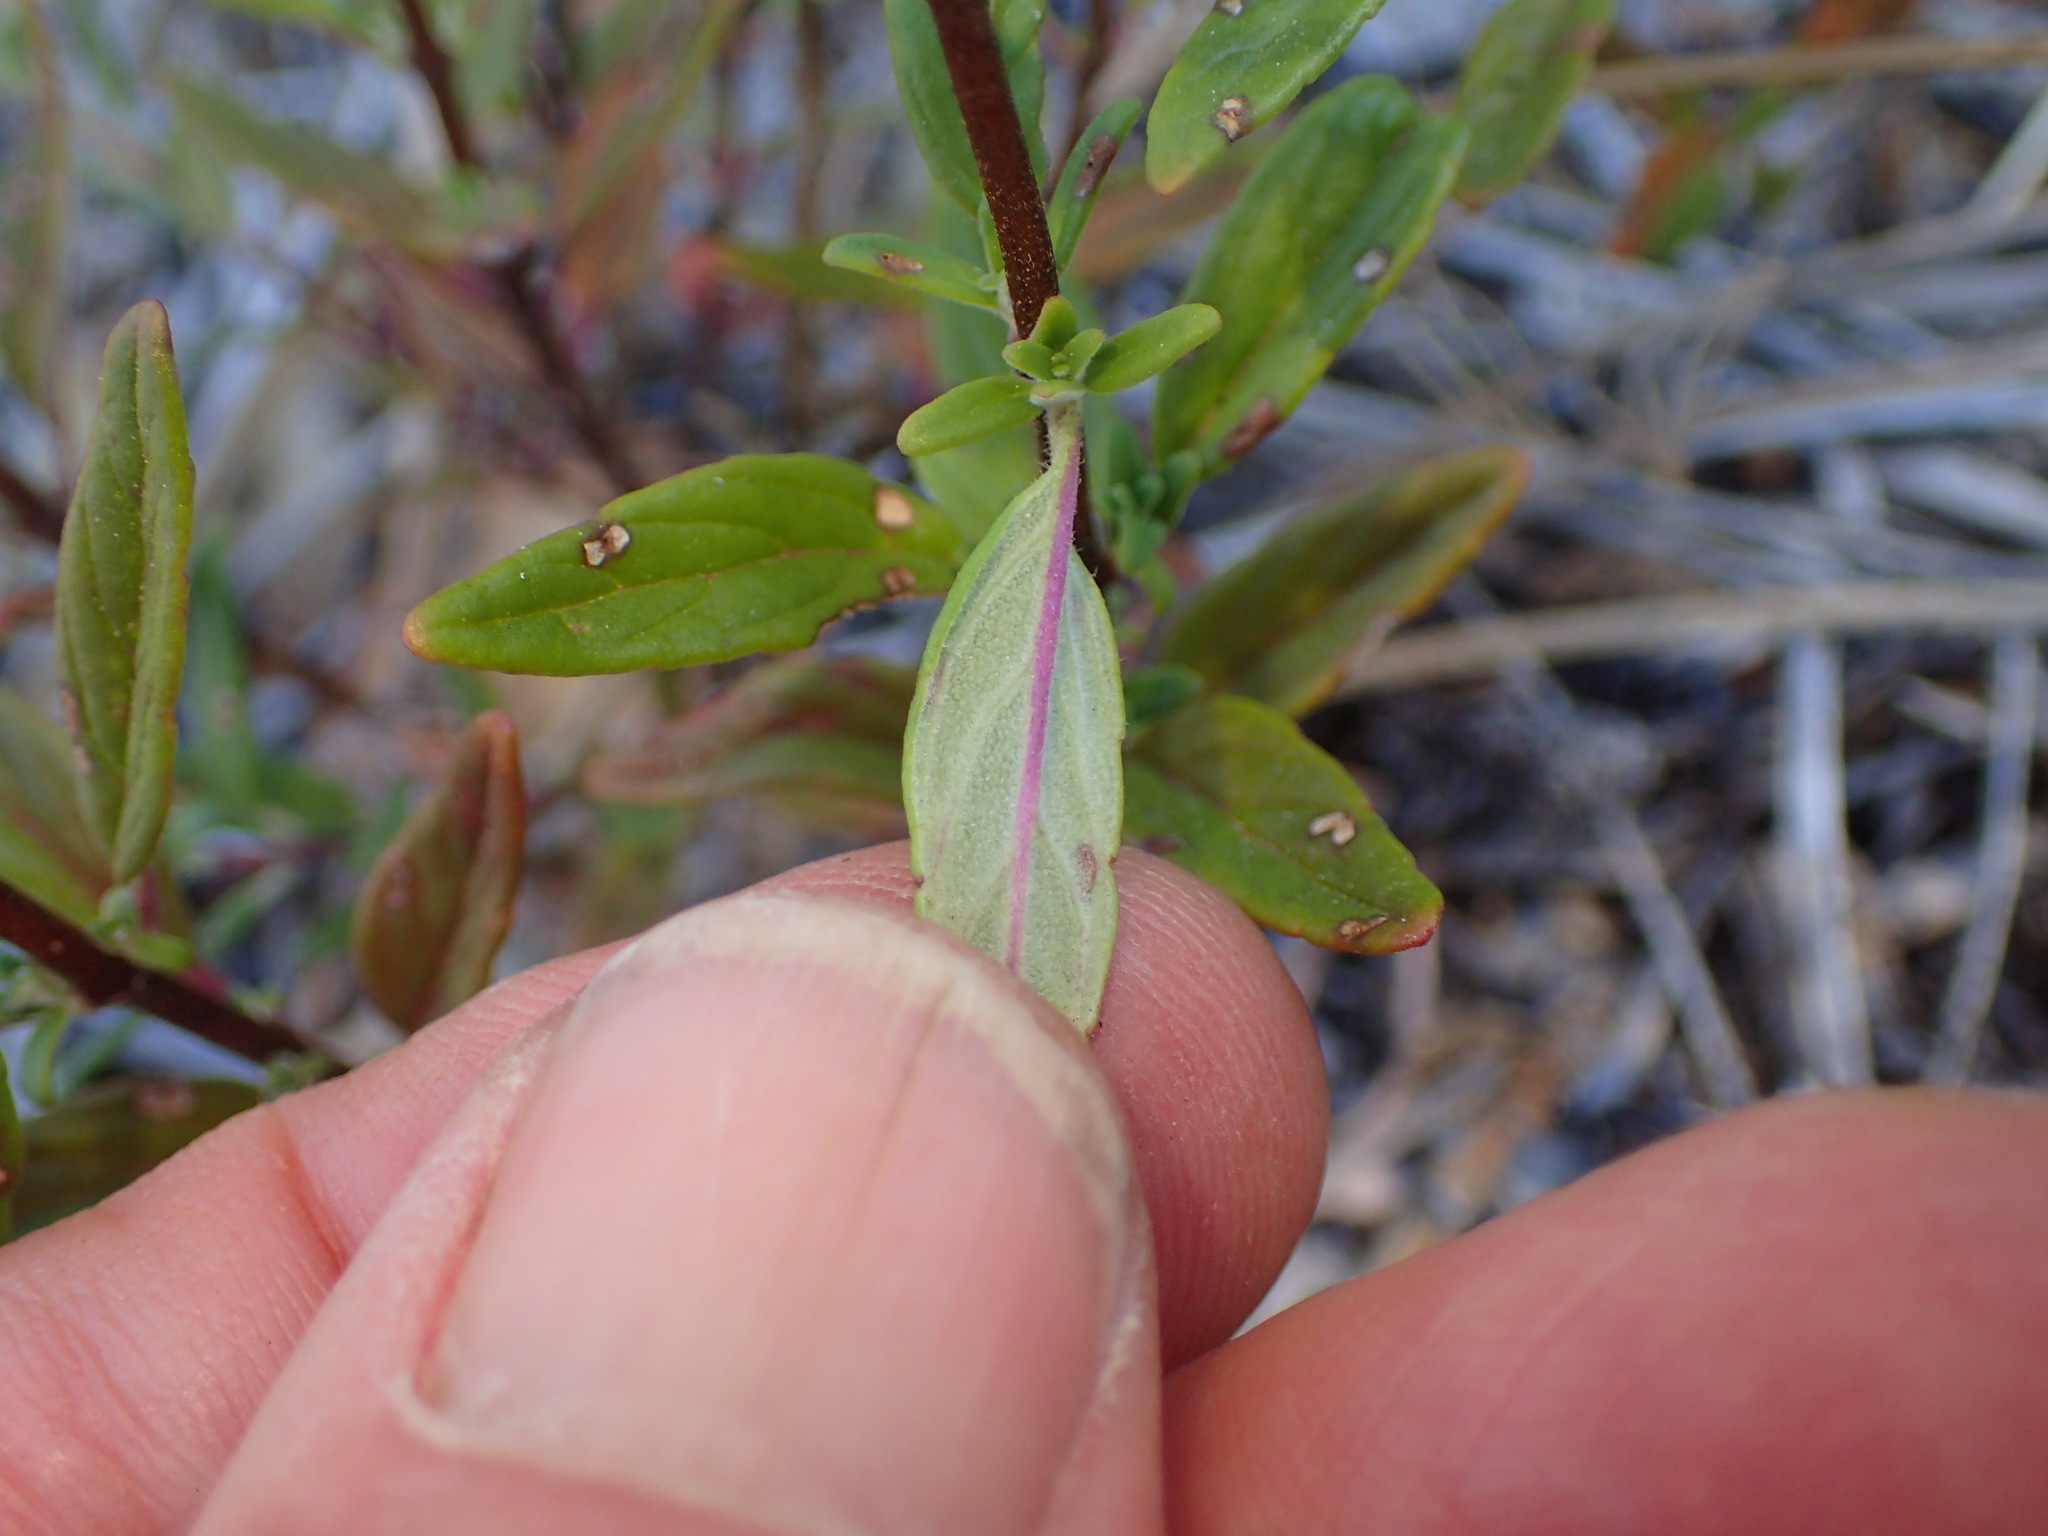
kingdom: Plantae
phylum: Tracheophyta
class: Magnoliopsida
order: Lamiales
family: Lamiaceae
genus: Monardella
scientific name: Monardella hypoleuca
